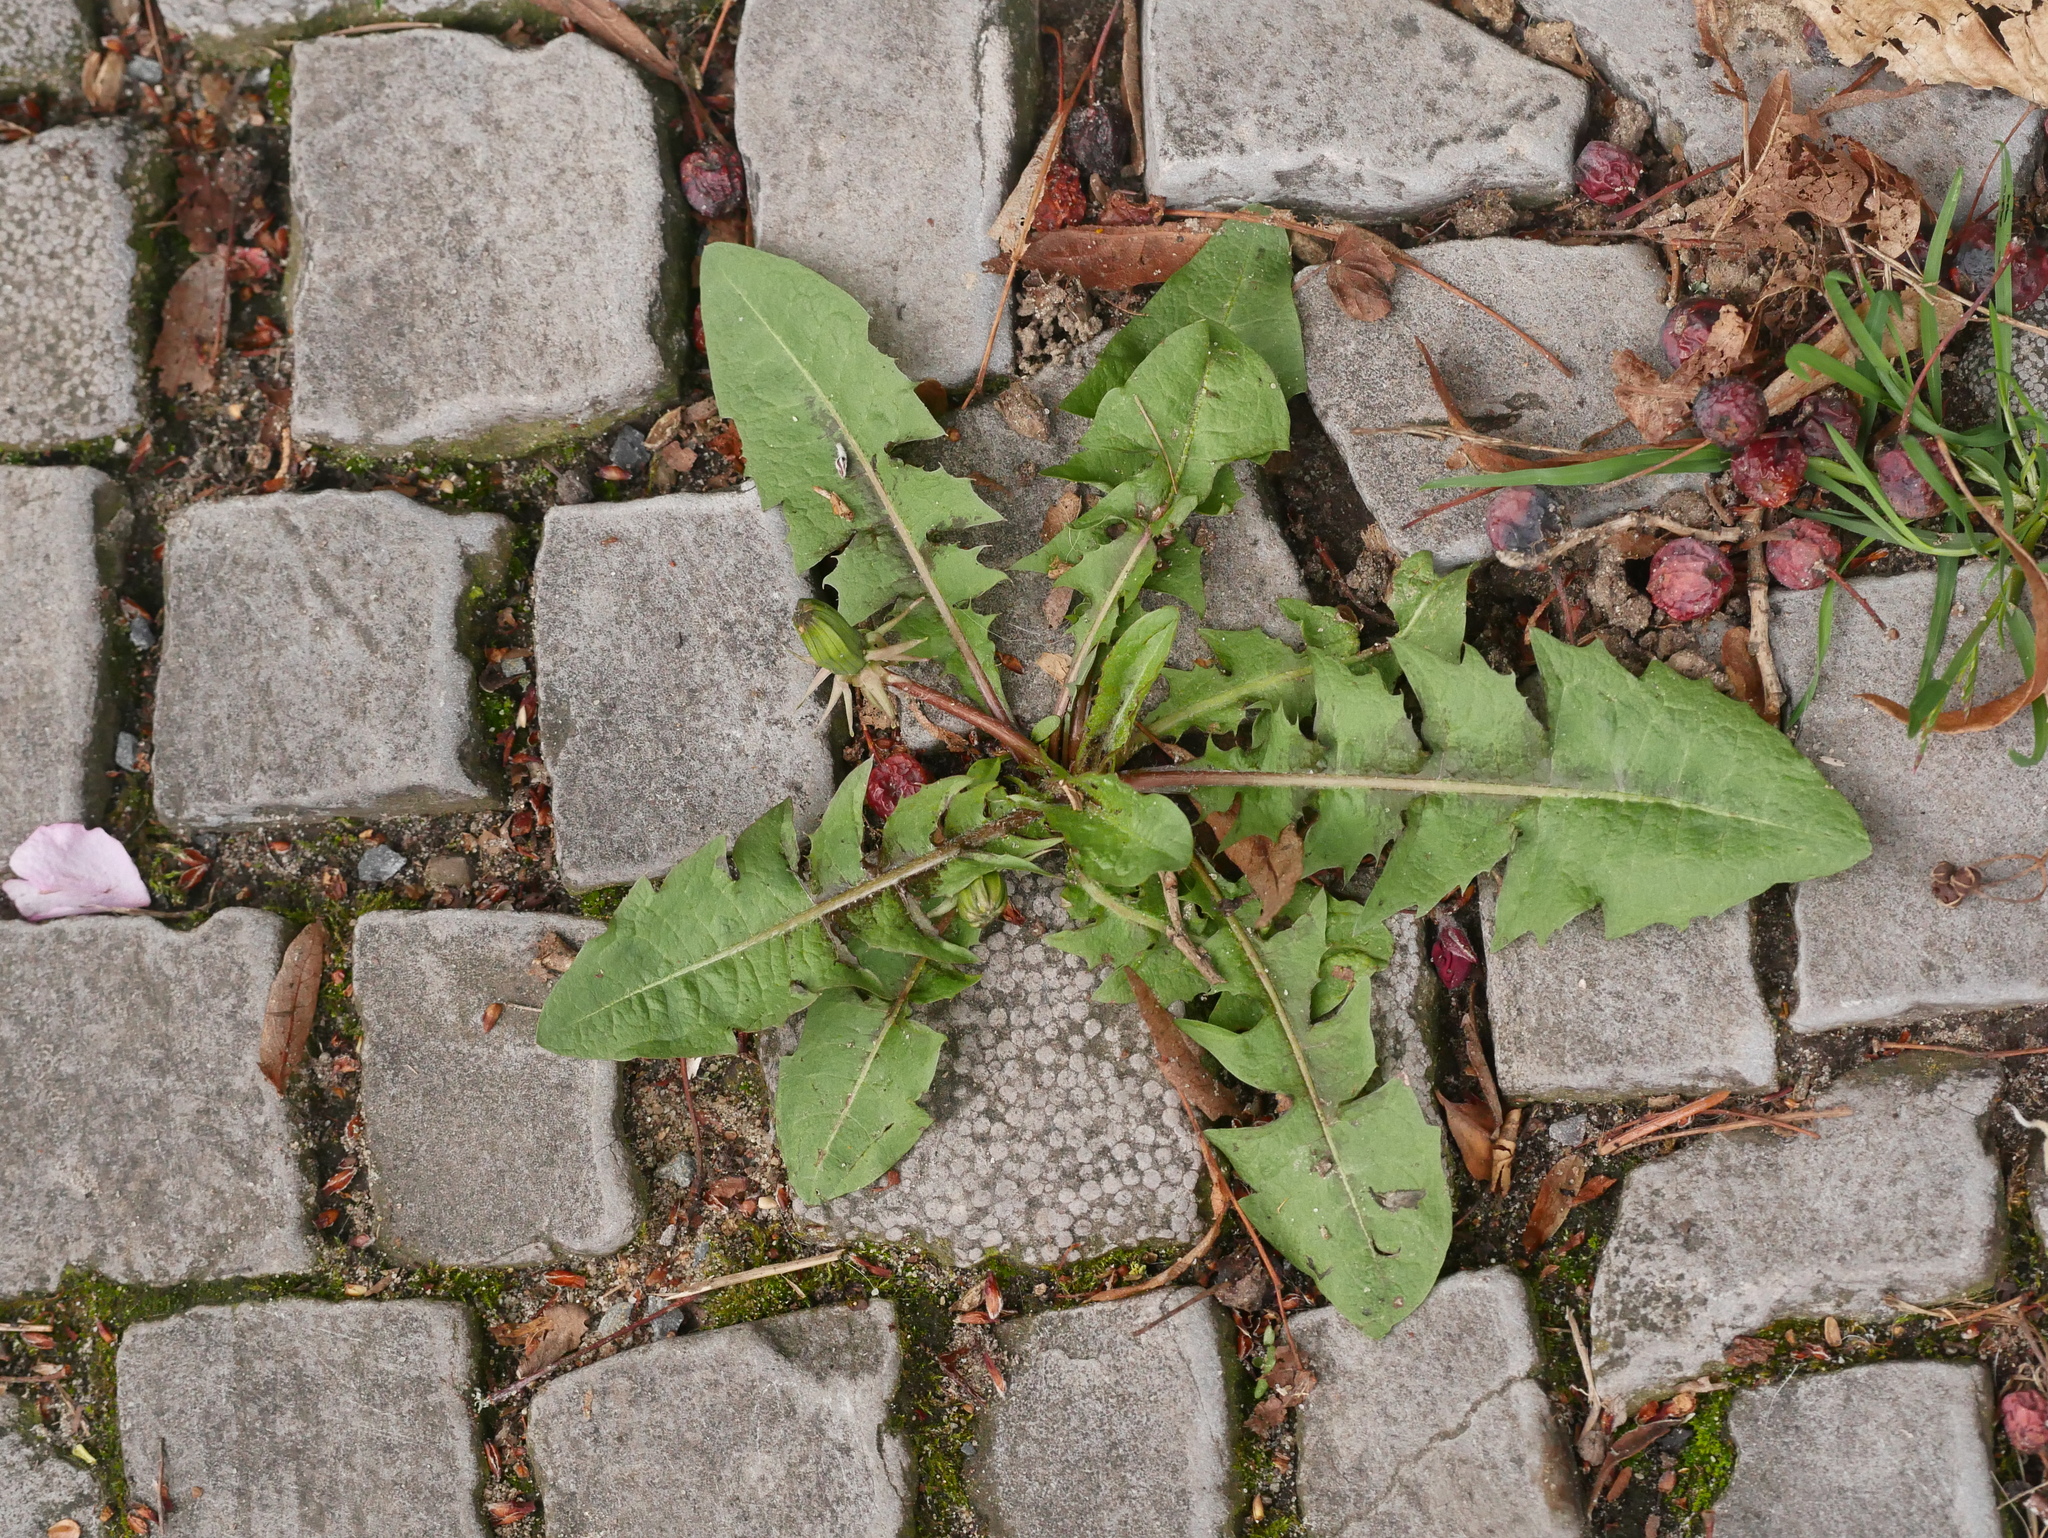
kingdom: Plantae
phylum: Tracheophyta
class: Magnoliopsida
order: Asterales
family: Asteraceae
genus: Taraxacum
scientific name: Taraxacum
